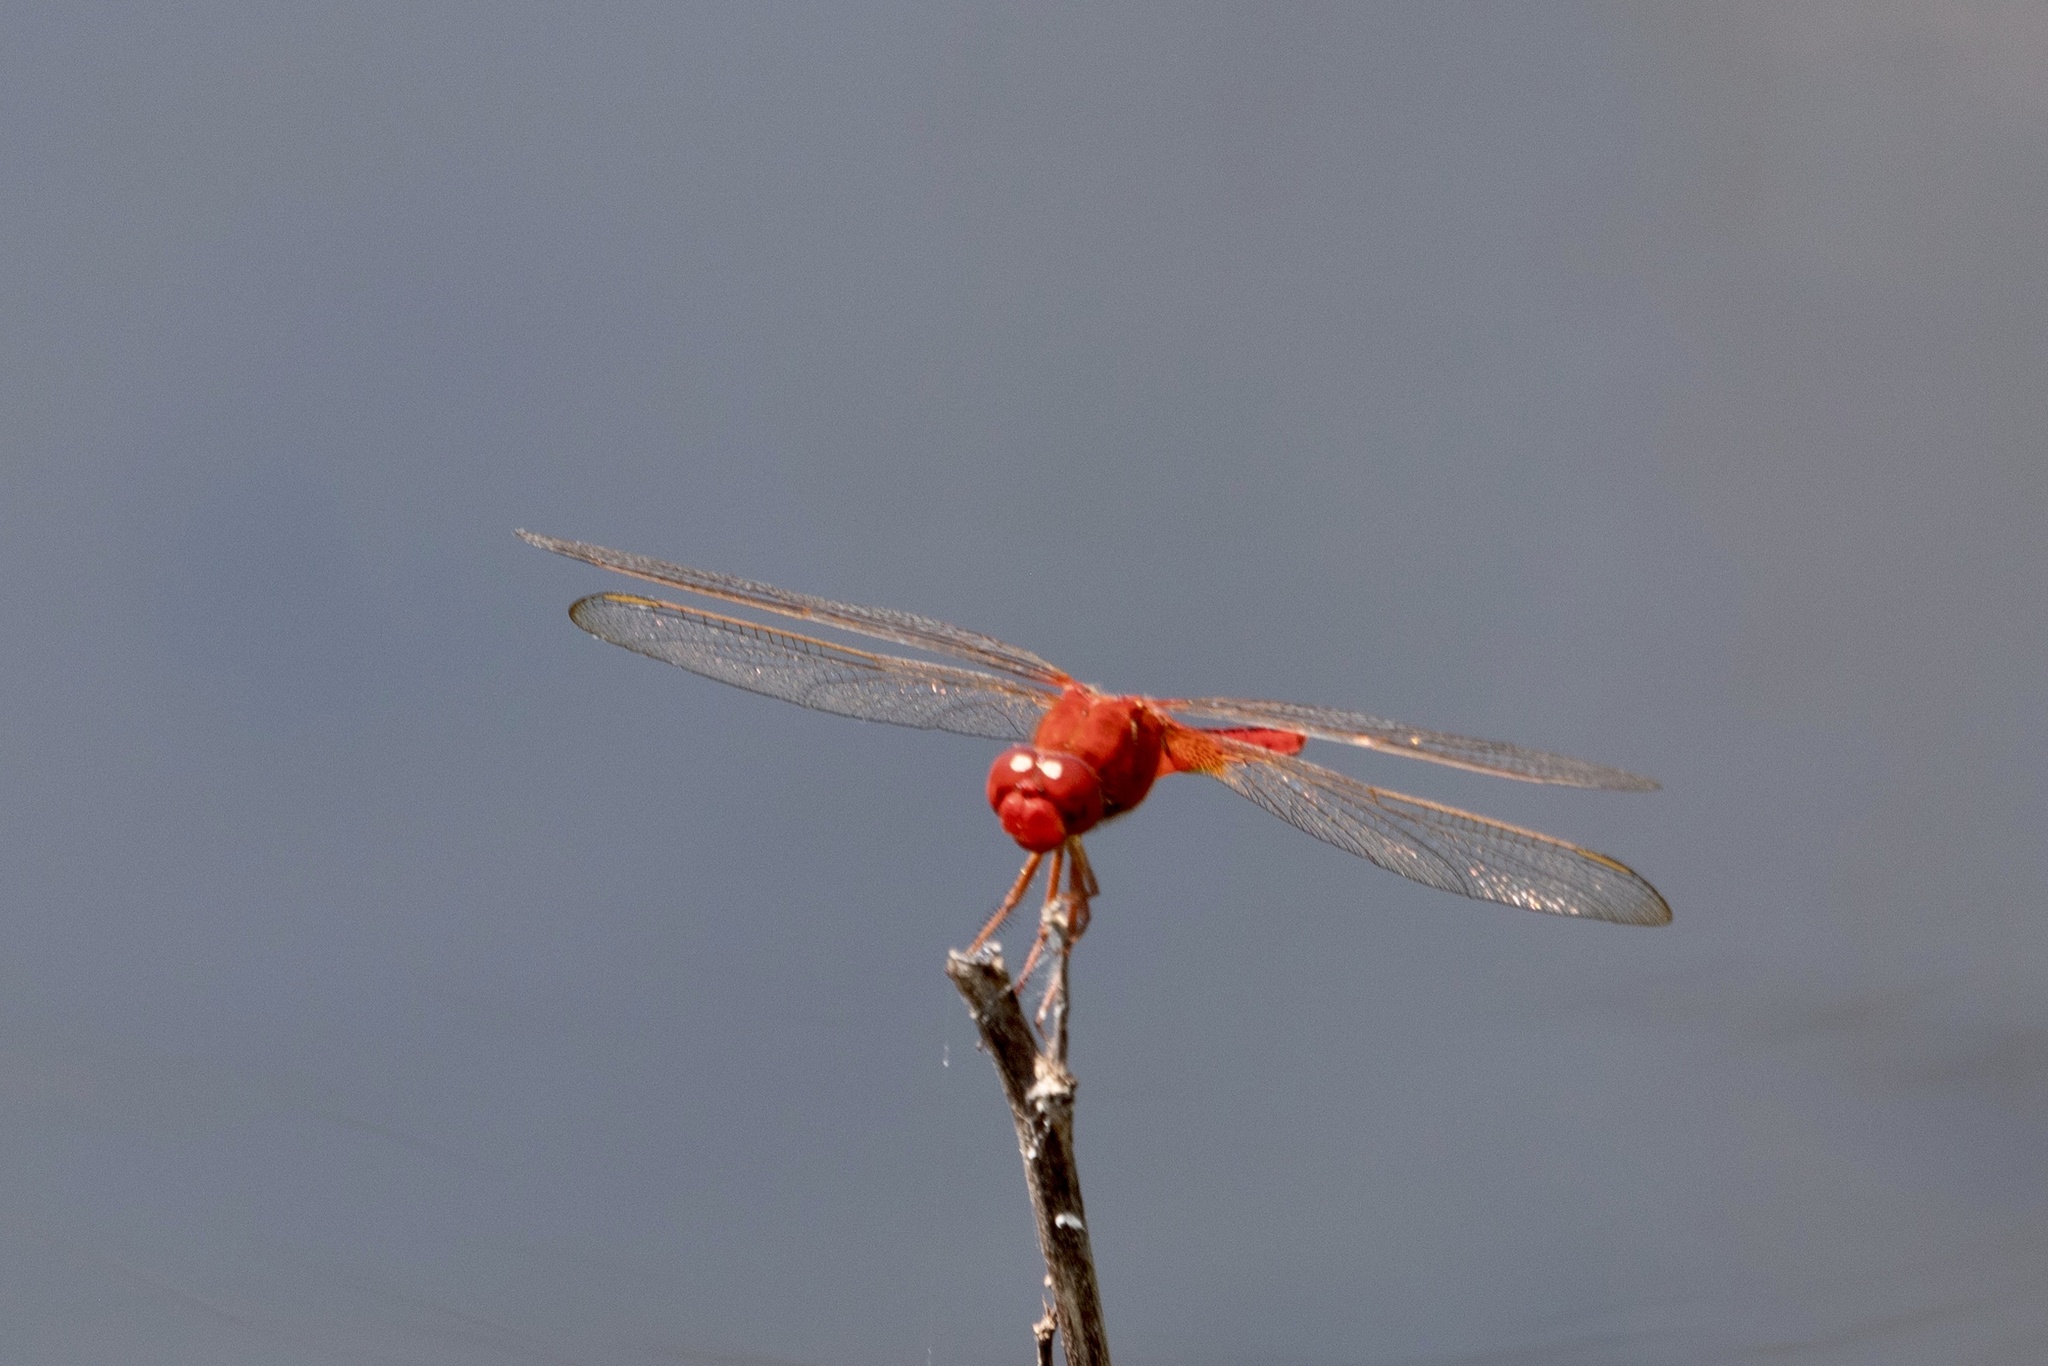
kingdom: Animalia
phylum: Arthropoda
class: Insecta
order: Odonata
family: Libellulidae
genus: Crocothemis
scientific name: Crocothemis servilia
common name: Scarlet skimmer
